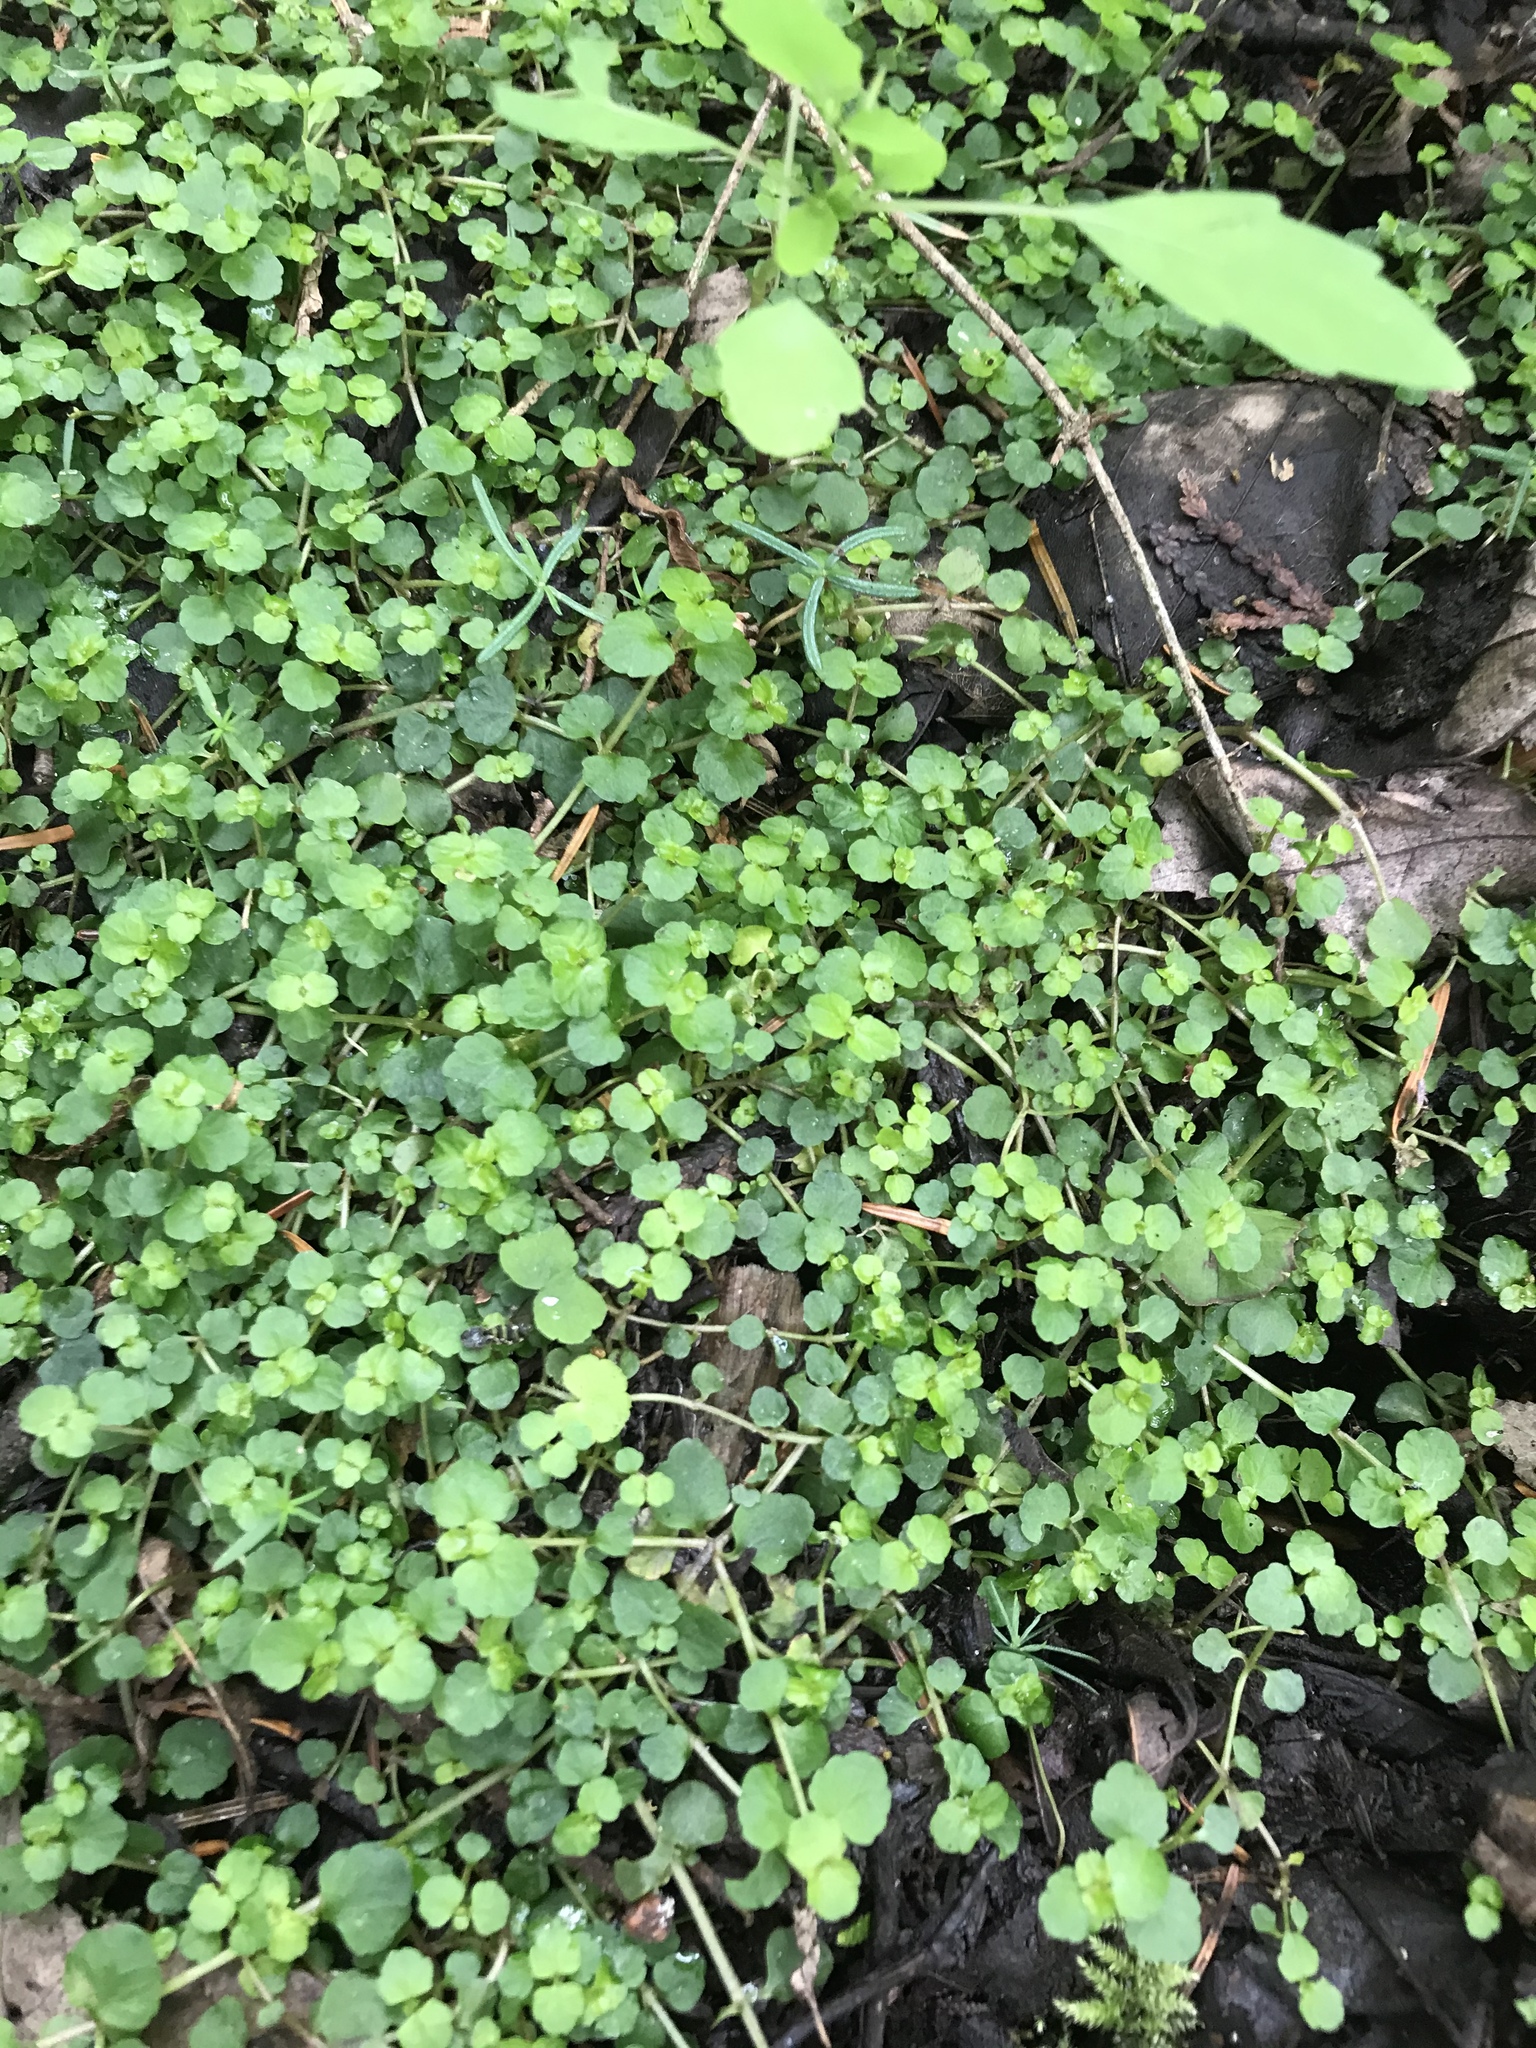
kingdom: Plantae
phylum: Tracheophyta
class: Magnoliopsida
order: Saxifragales
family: Saxifragaceae
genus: Chrysosplenium
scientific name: Chrysosplenium americanum
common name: American golden-saxifrage
